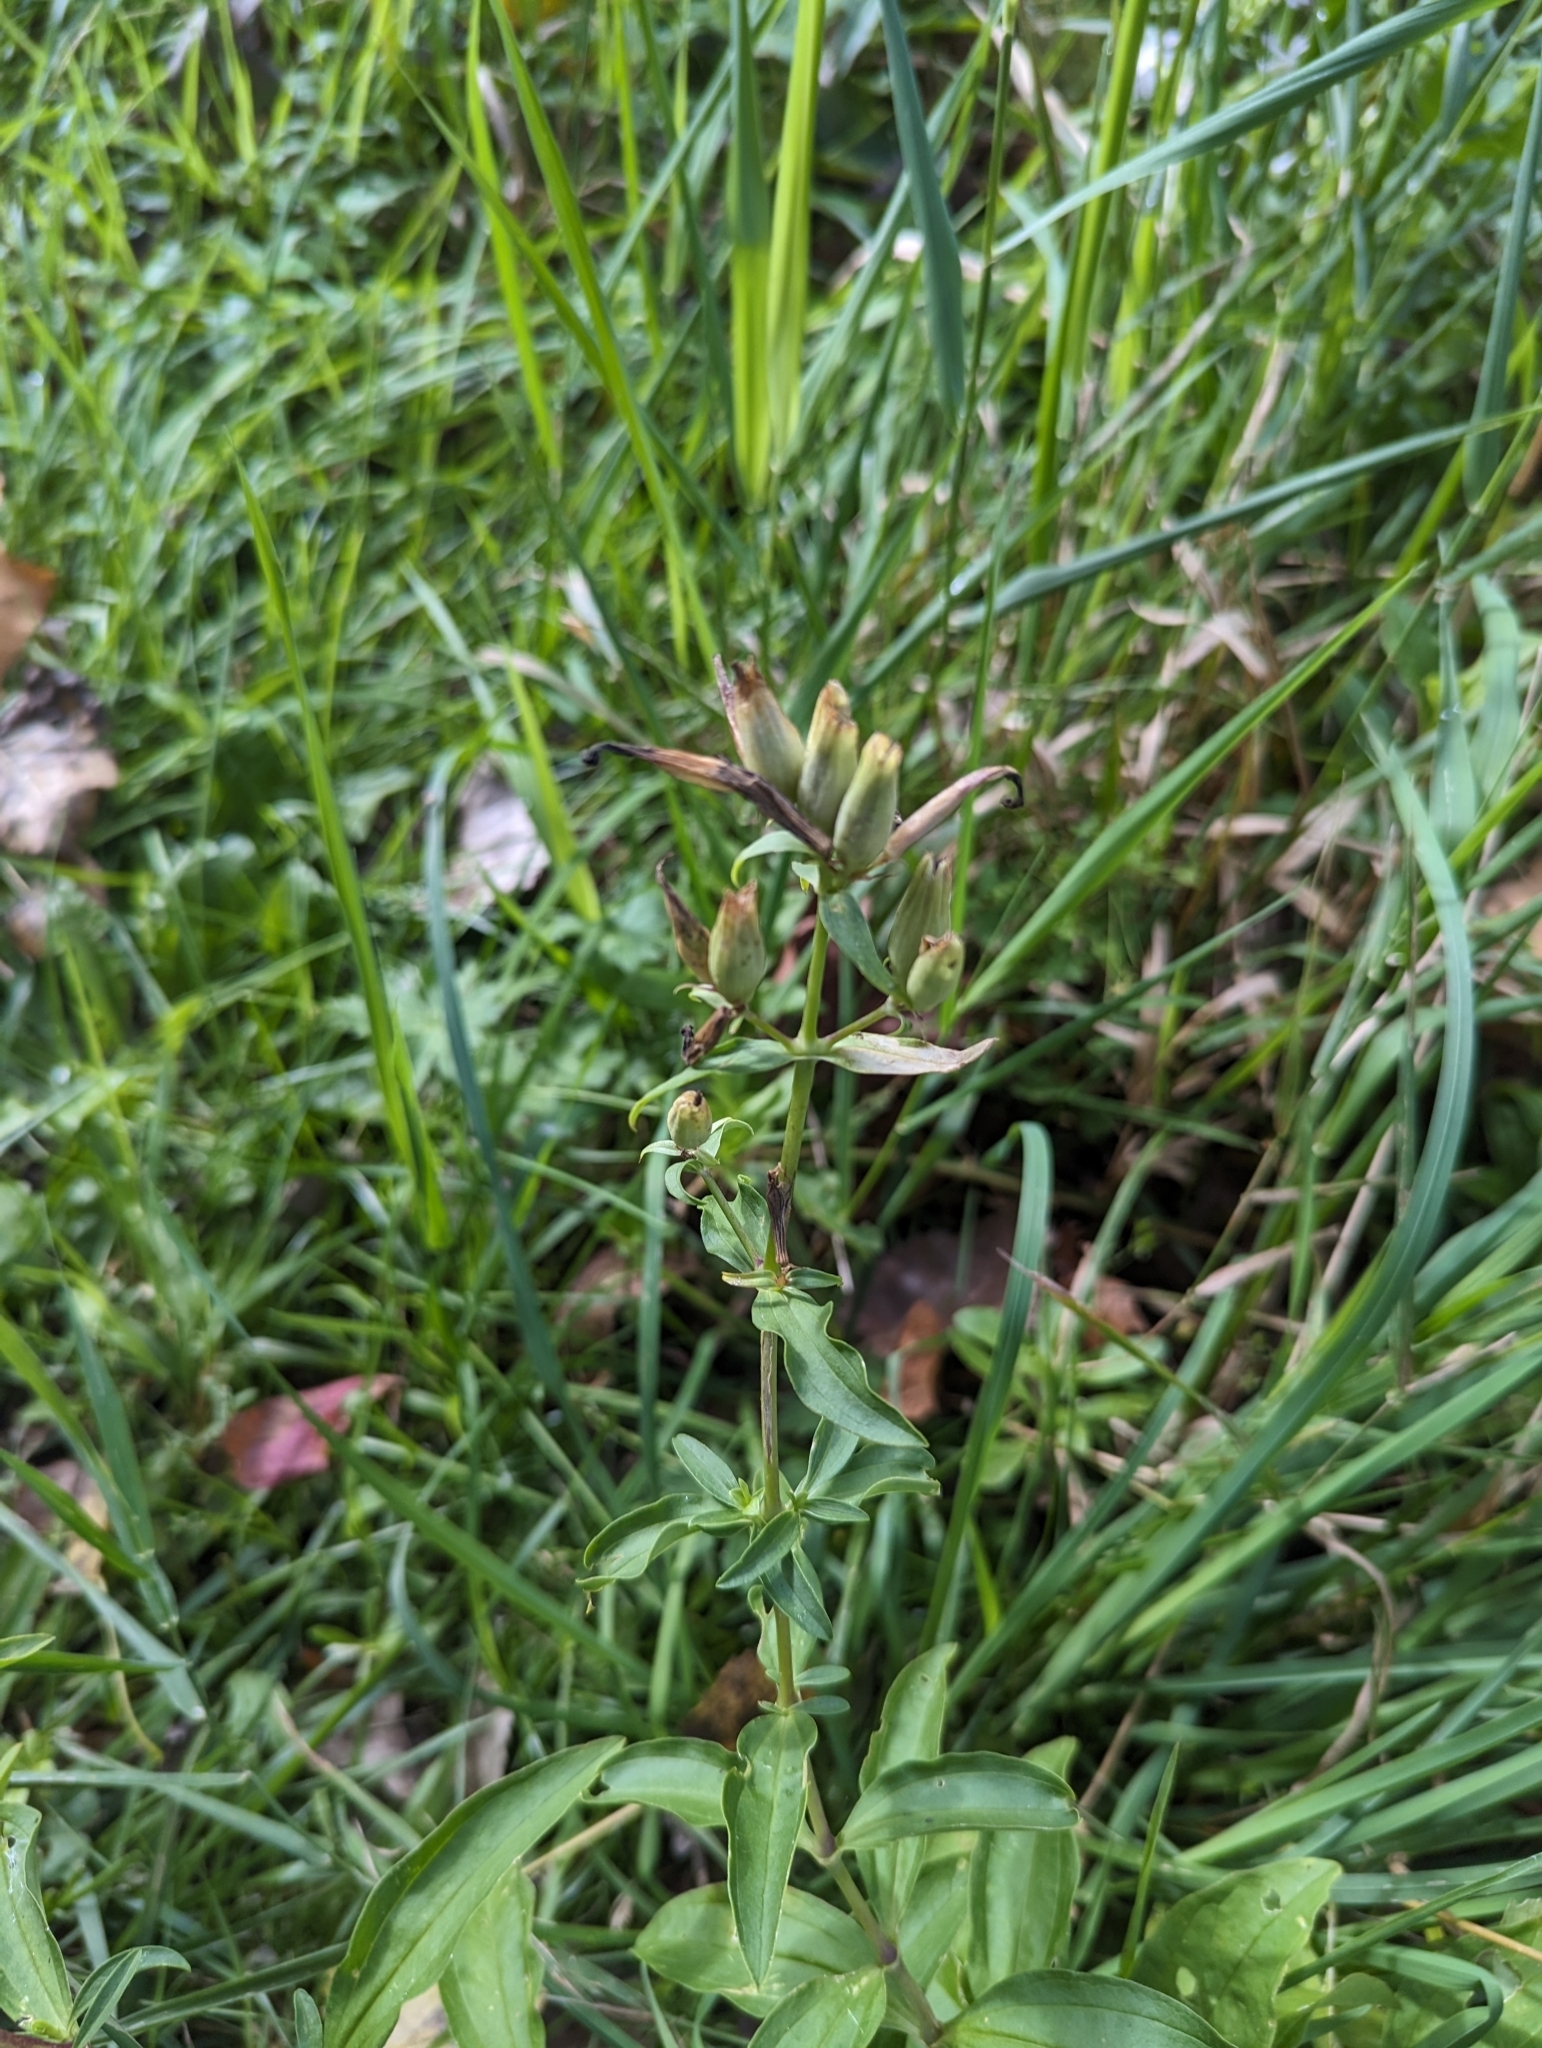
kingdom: Plantae
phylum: Tracheophyta
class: Magnoliopsida
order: Caryophyllales
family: Caryophyllaceae
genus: Saponaria
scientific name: Saponaria officinalis
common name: Soapwort
